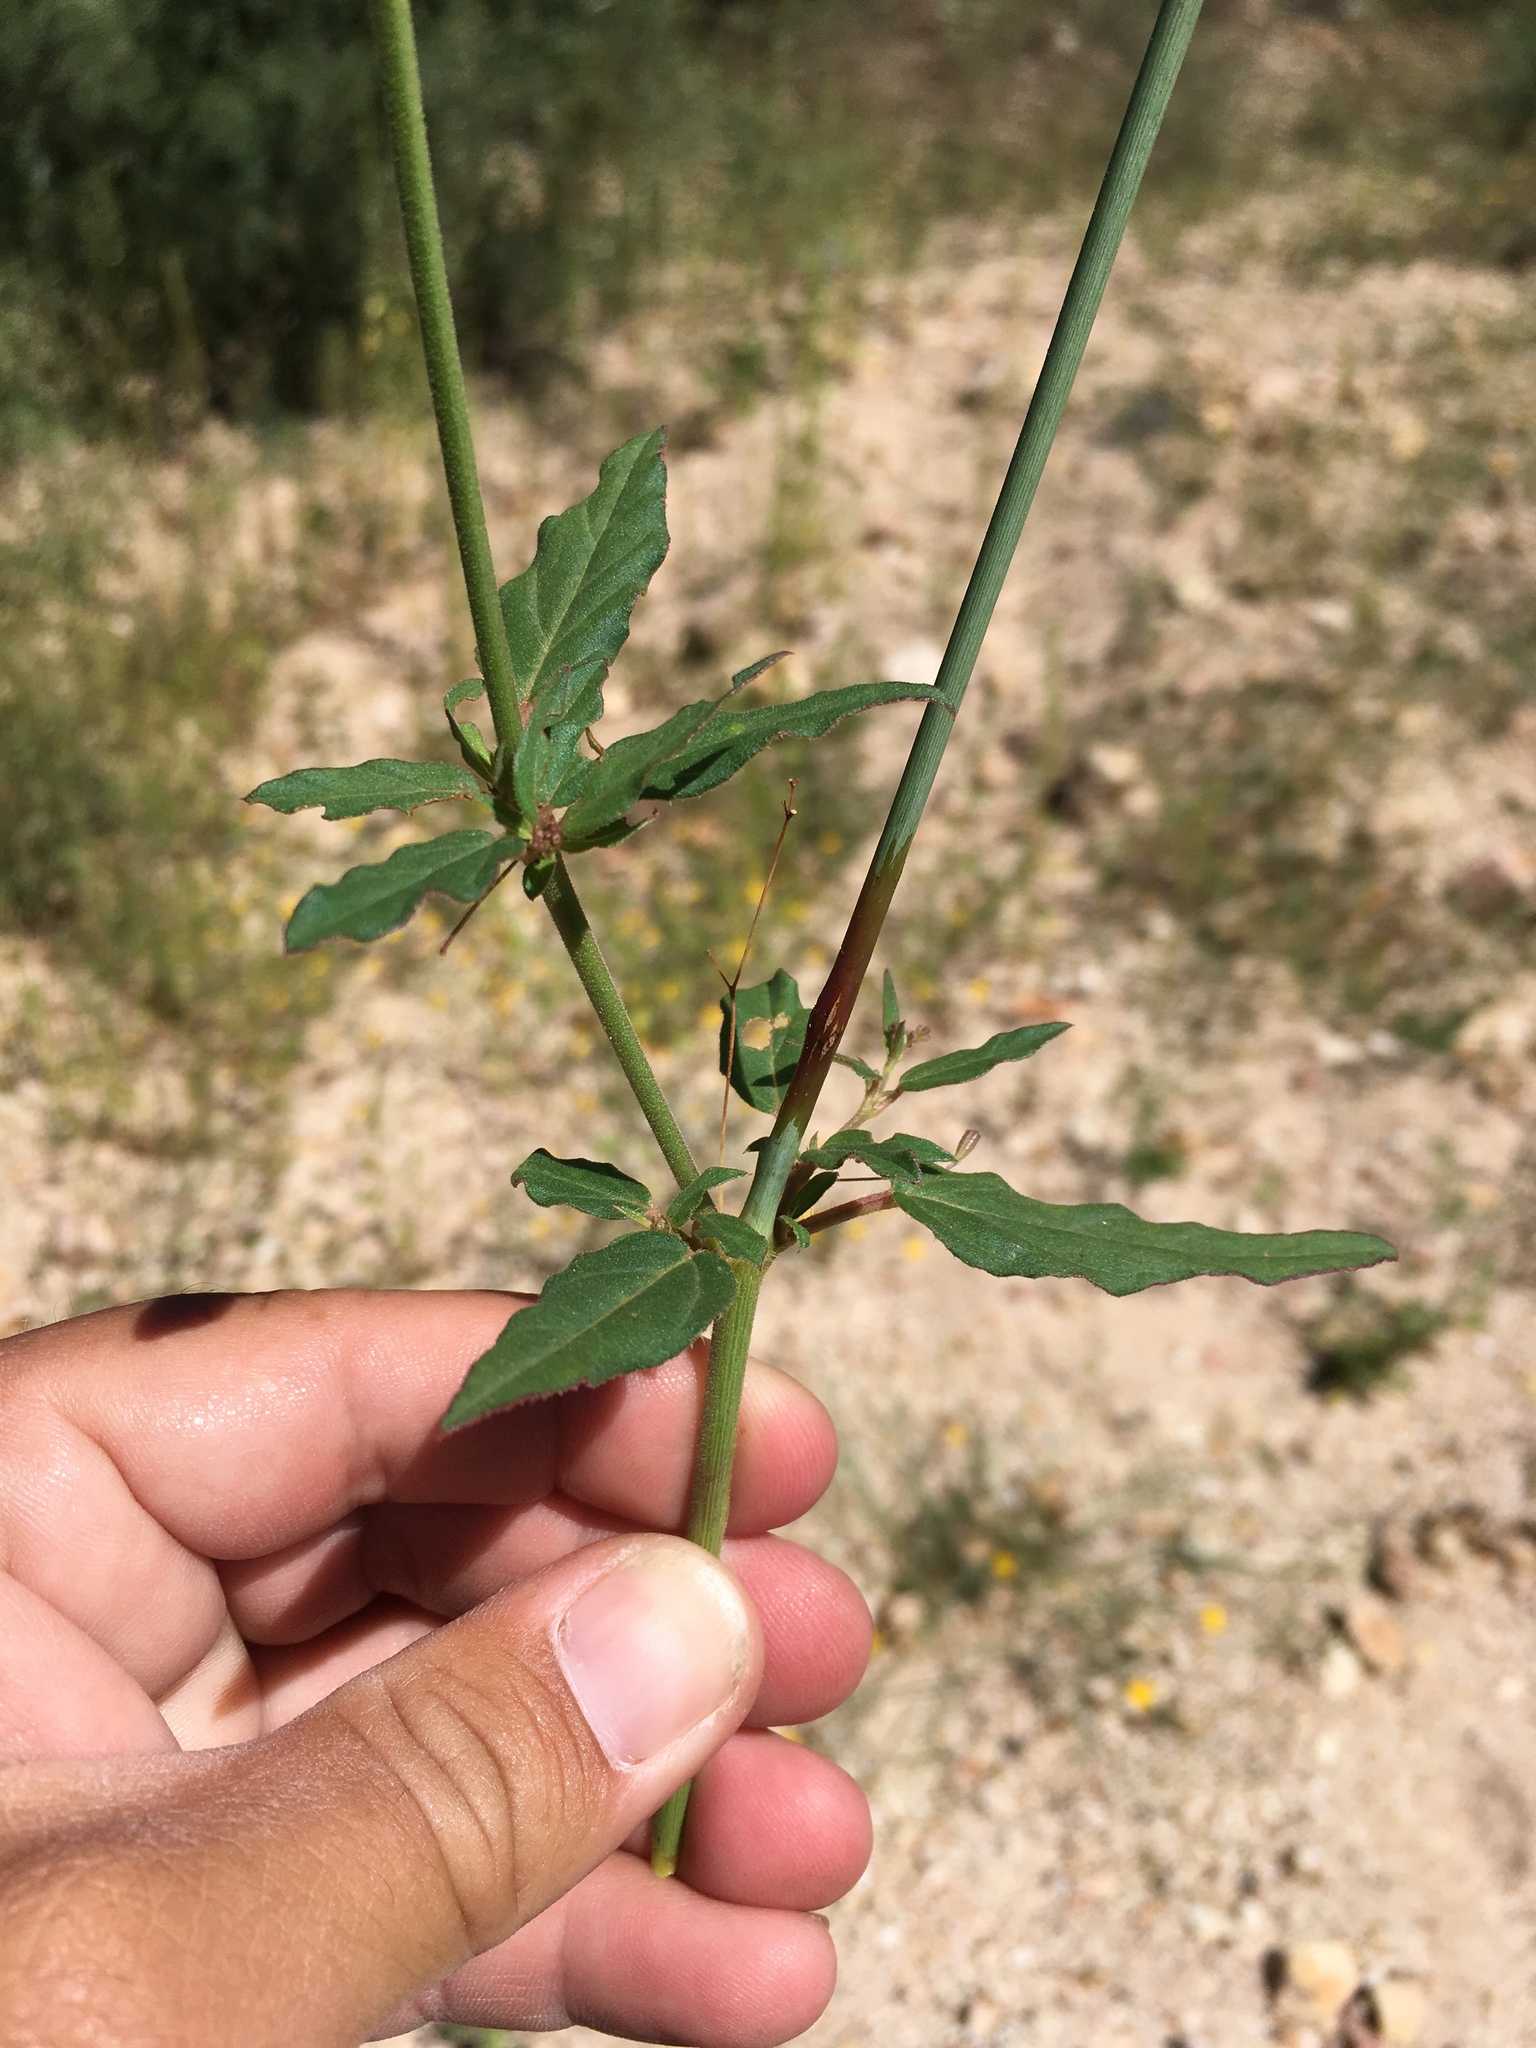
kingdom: Plantae
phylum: Tracheophyta
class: Magnoliopsida
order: Caryophyllales
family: Nyctaginaceae
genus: Boerhavia
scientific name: Boerhavia erecta
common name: Erect spiderling
